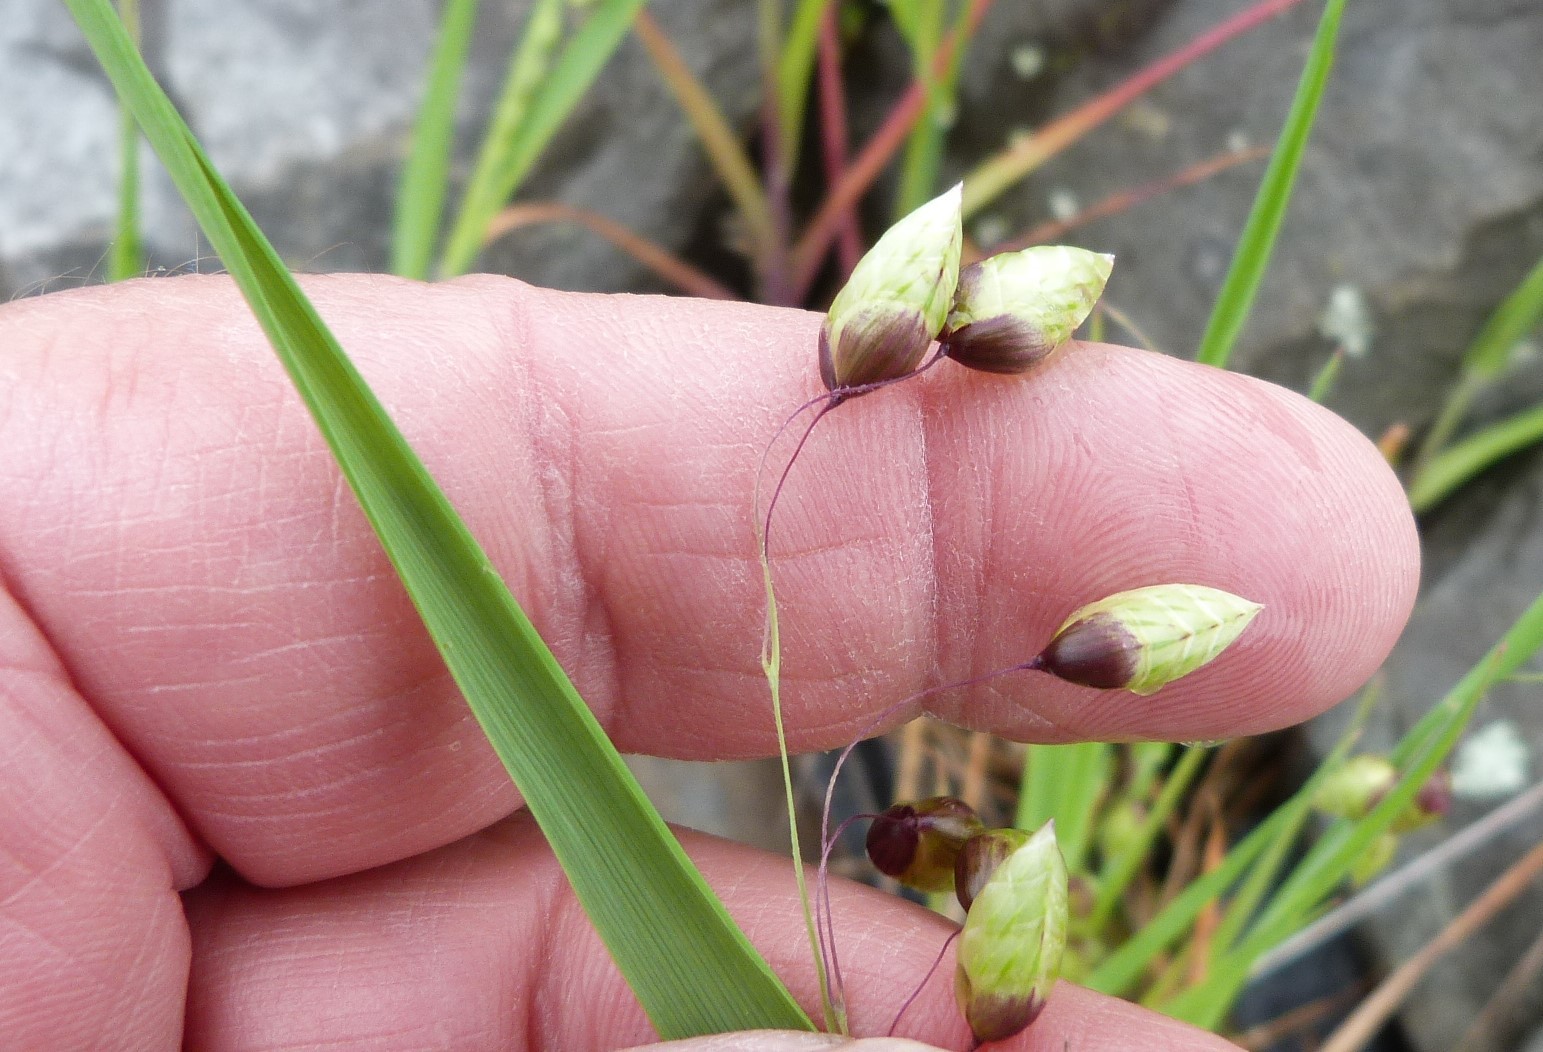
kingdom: Plantae
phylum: Tracheophyta
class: Liliopsida
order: Poales
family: Poaceae
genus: Briza
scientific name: Briza media
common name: Quaking grass
